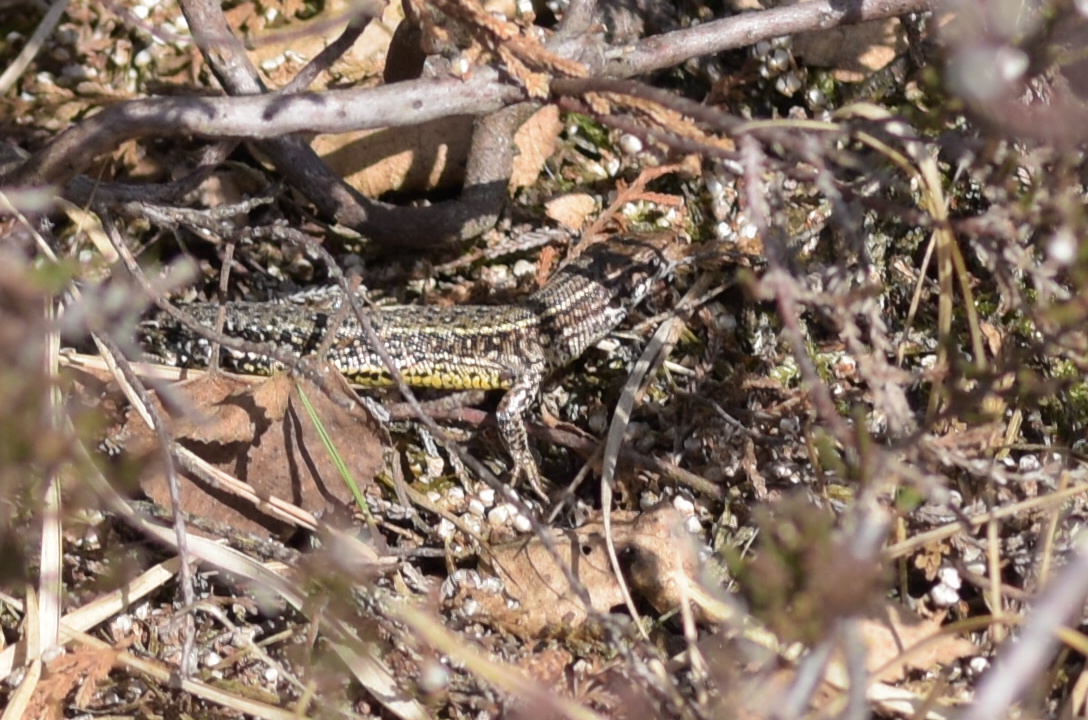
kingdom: Animalia
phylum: Chordata
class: Squamata
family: Lacertidae
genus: Zootoca
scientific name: Zootoca vivipara
